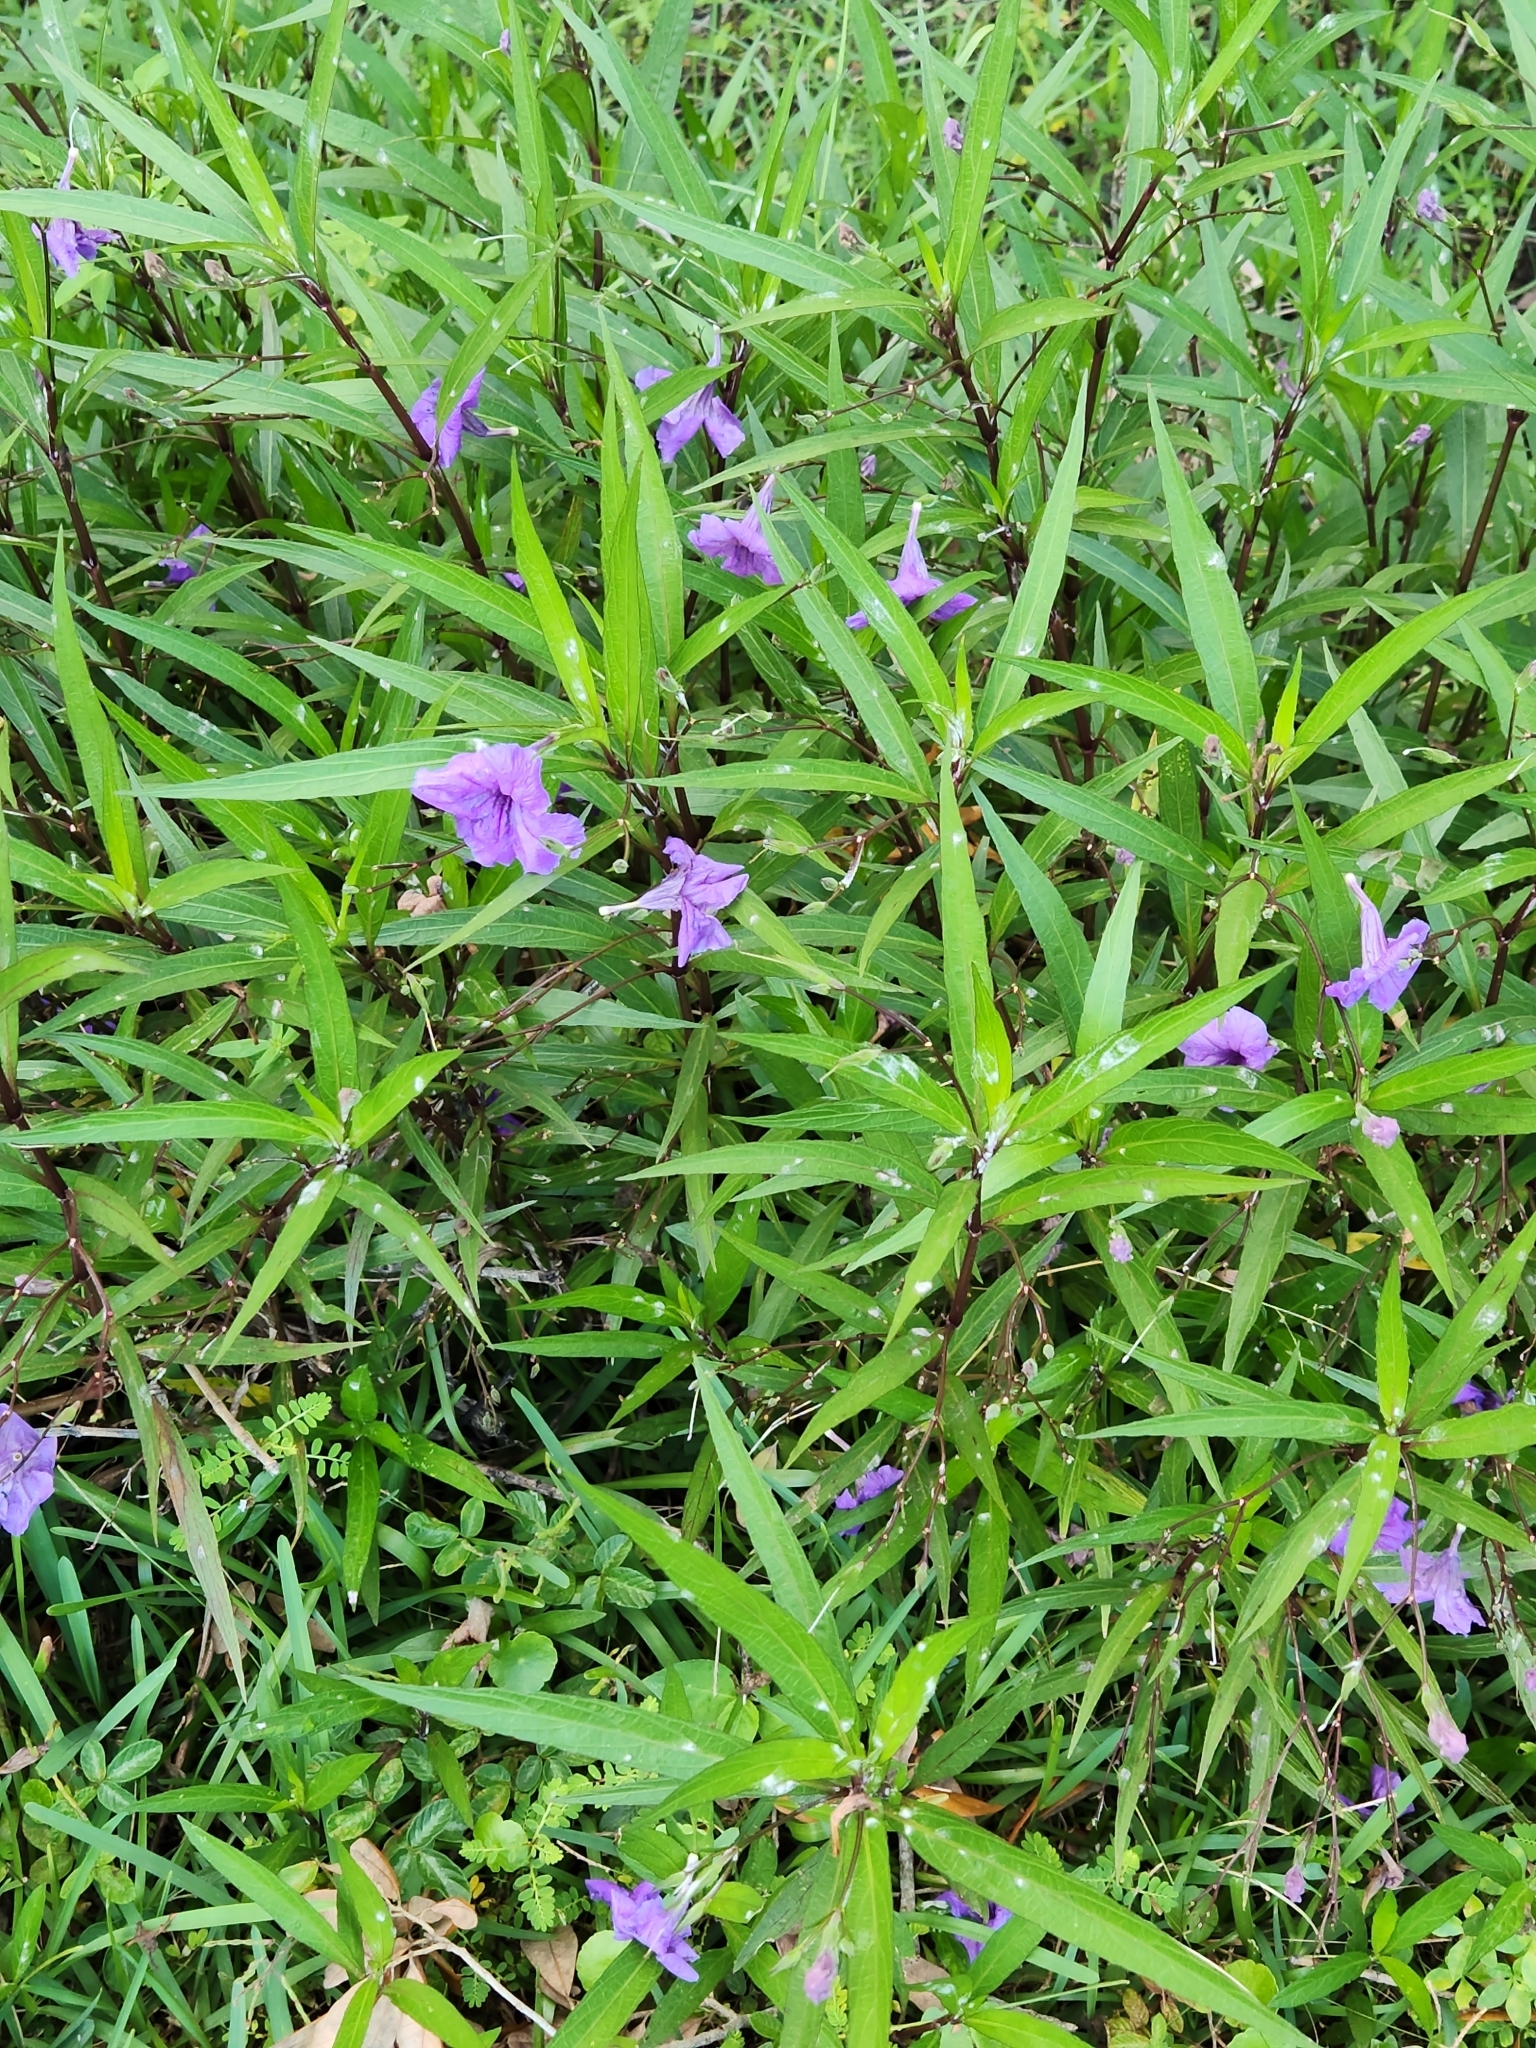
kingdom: Plantae
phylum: Tracheophyta
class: Magnoliopsida
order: Lamiales
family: Acanthaceae
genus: Ruellia
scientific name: Ruellia simplex
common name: Softseed wild petunia
